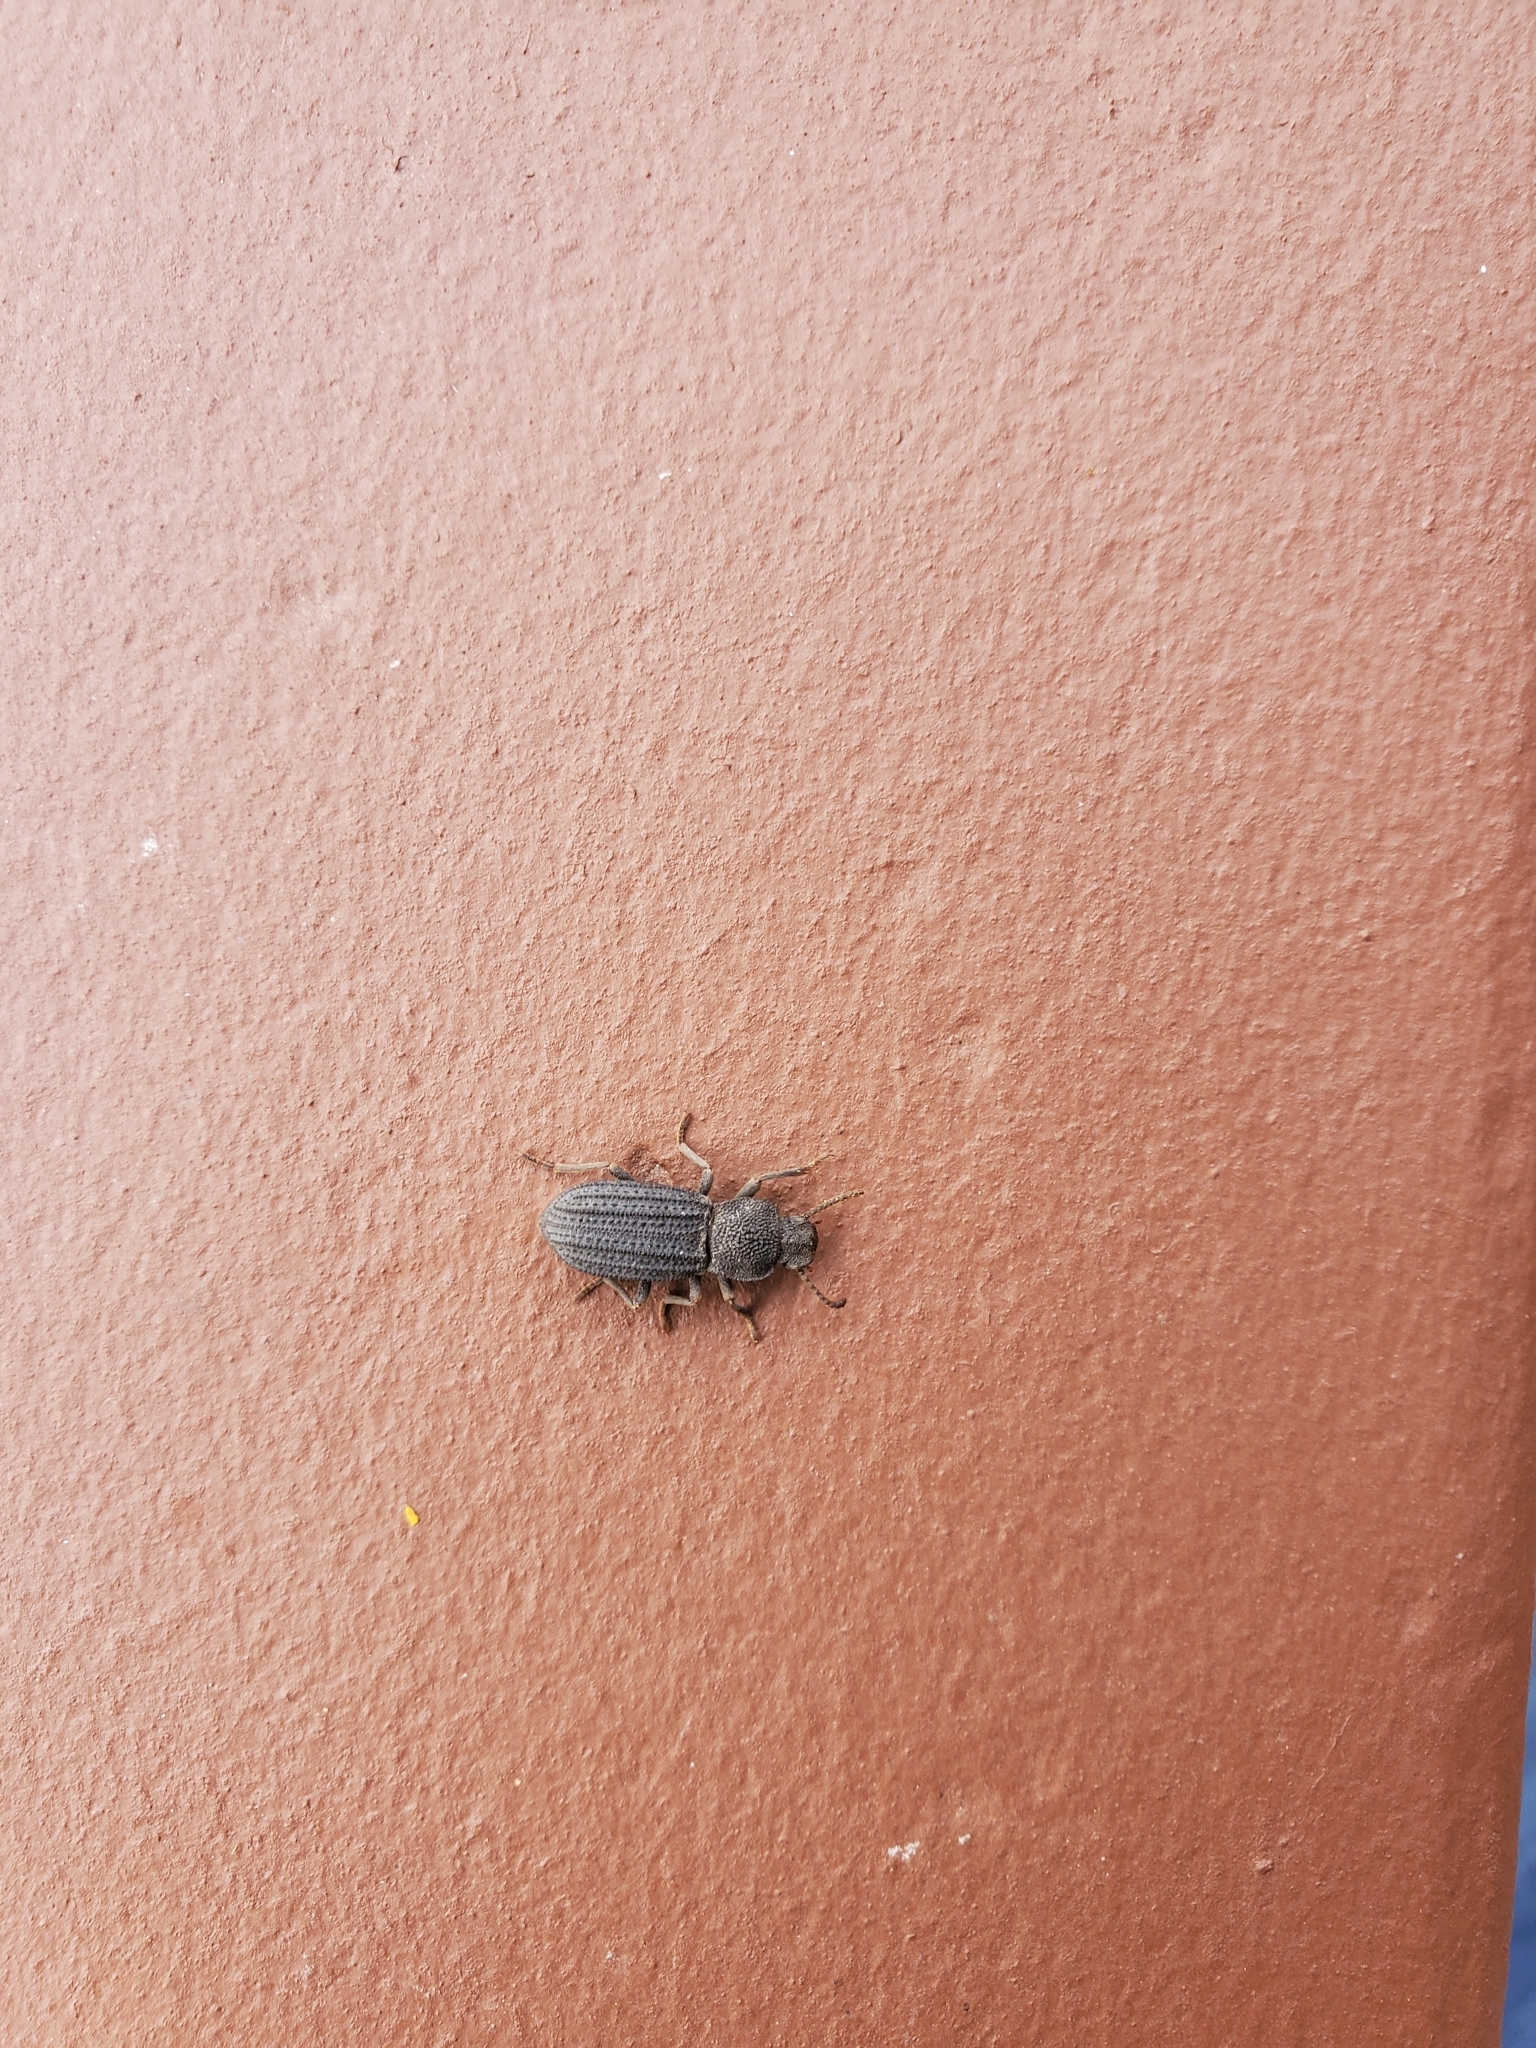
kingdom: Animalia
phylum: Arthropoda
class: Insecta
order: Coleoptera
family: Tenebrionidae
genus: Nyctoporis
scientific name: Nyctoporis carinata
